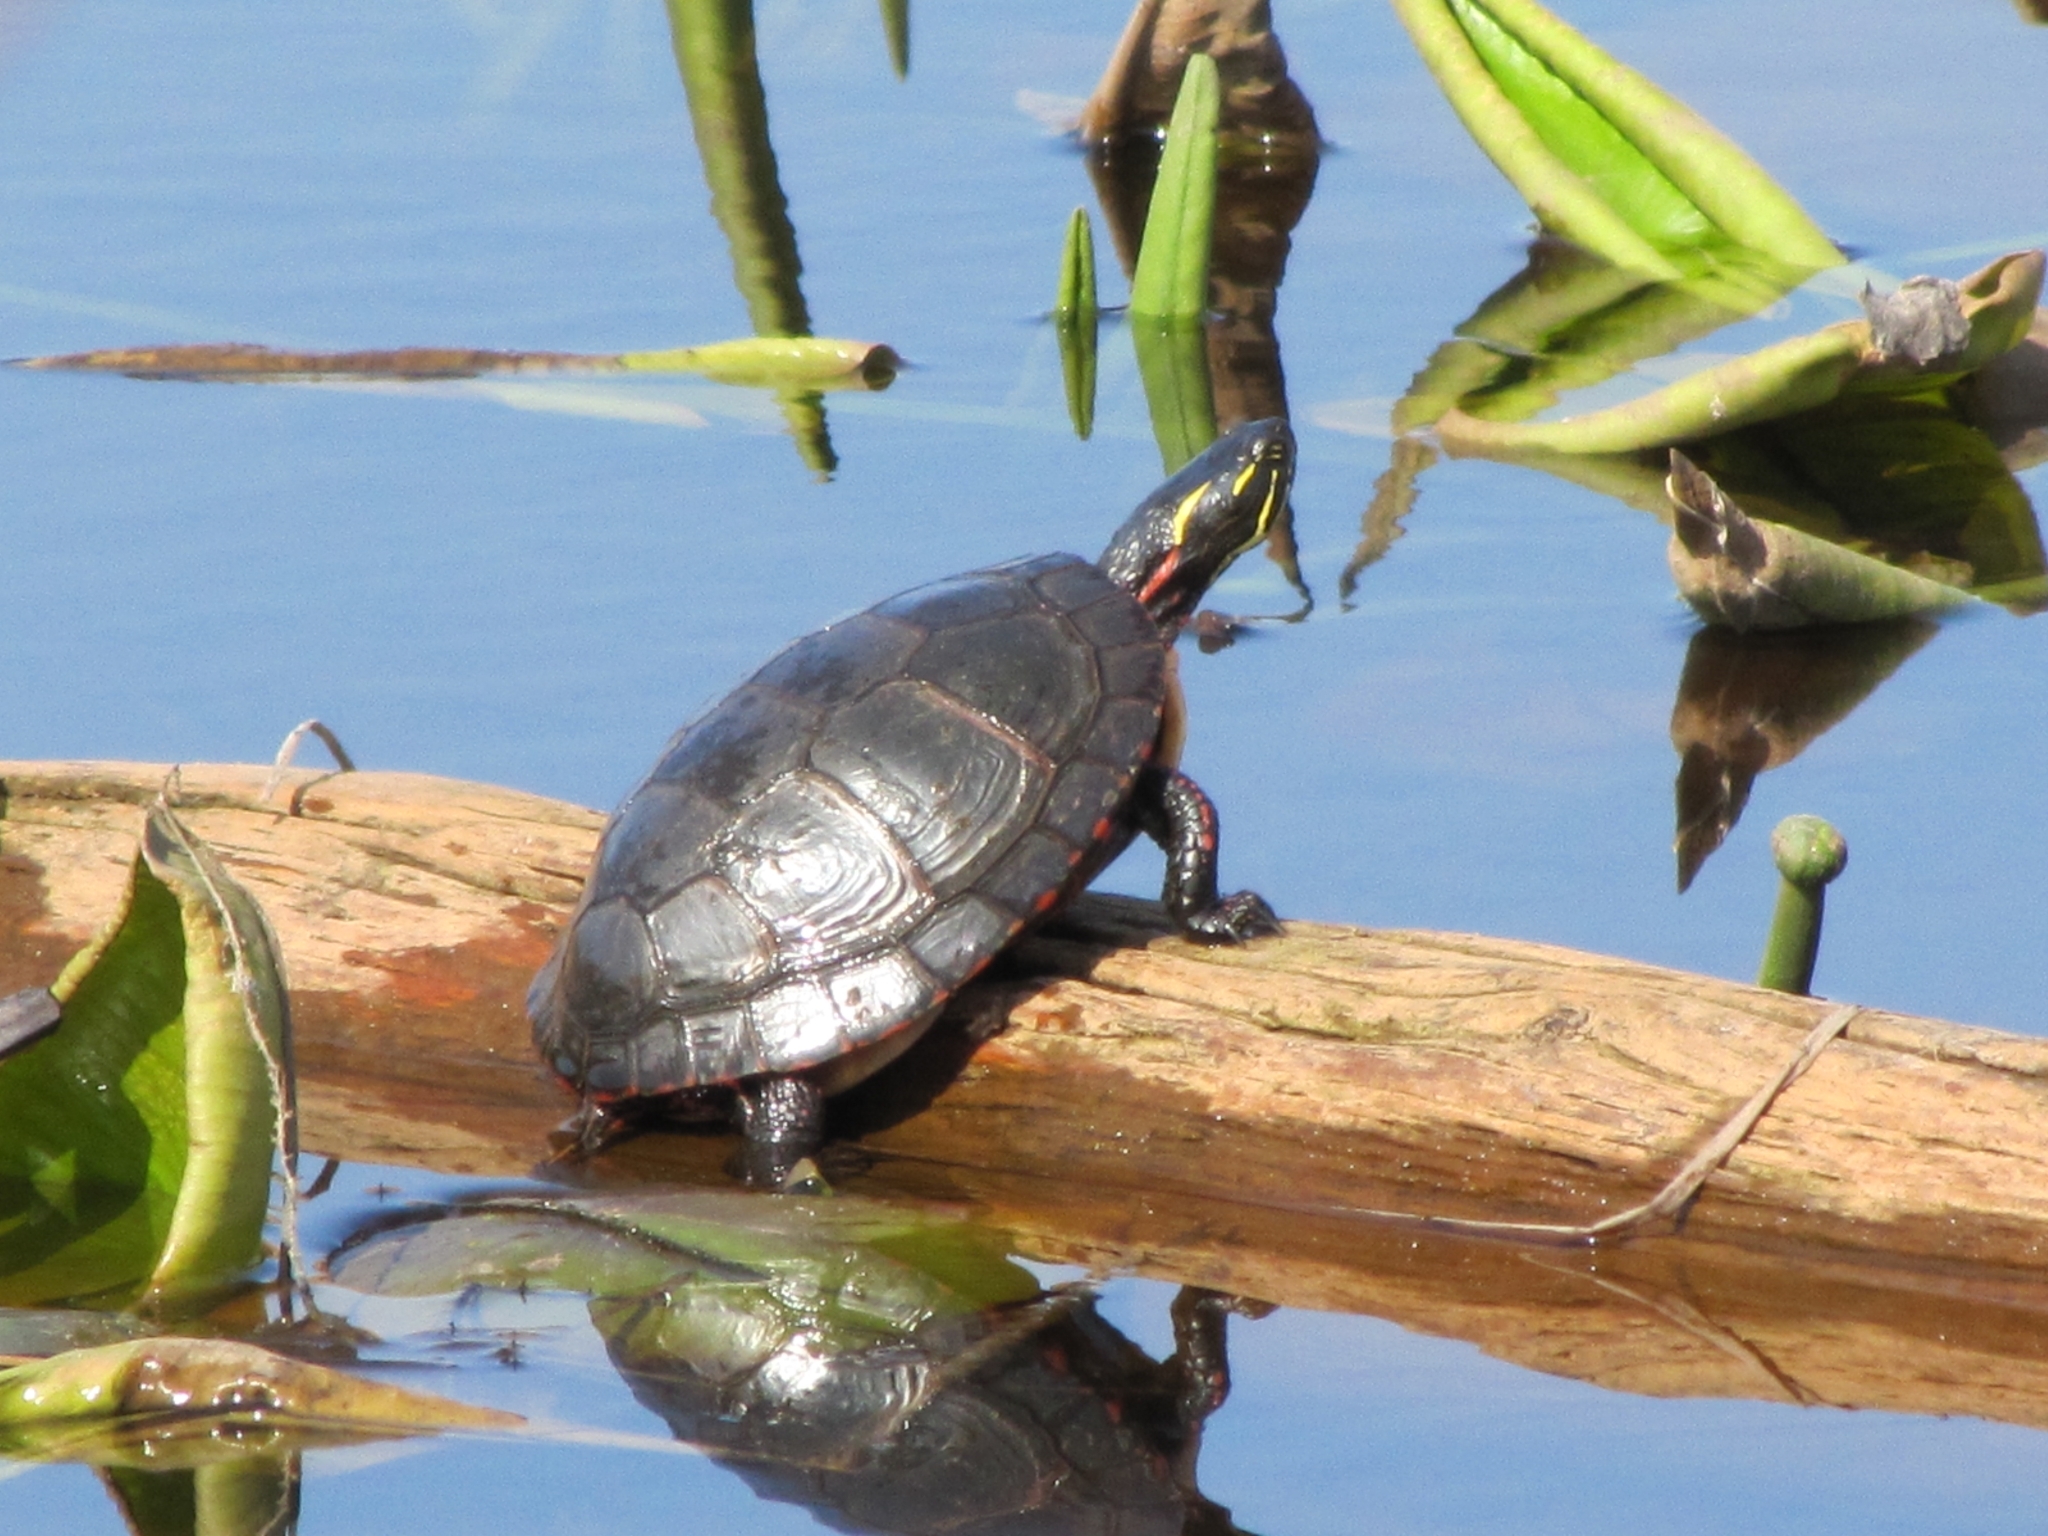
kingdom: Animalia
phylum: Chordata
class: Testudines
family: Emydidae
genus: Chrysemys
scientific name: Chrysemys picta
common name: Painted turtle
